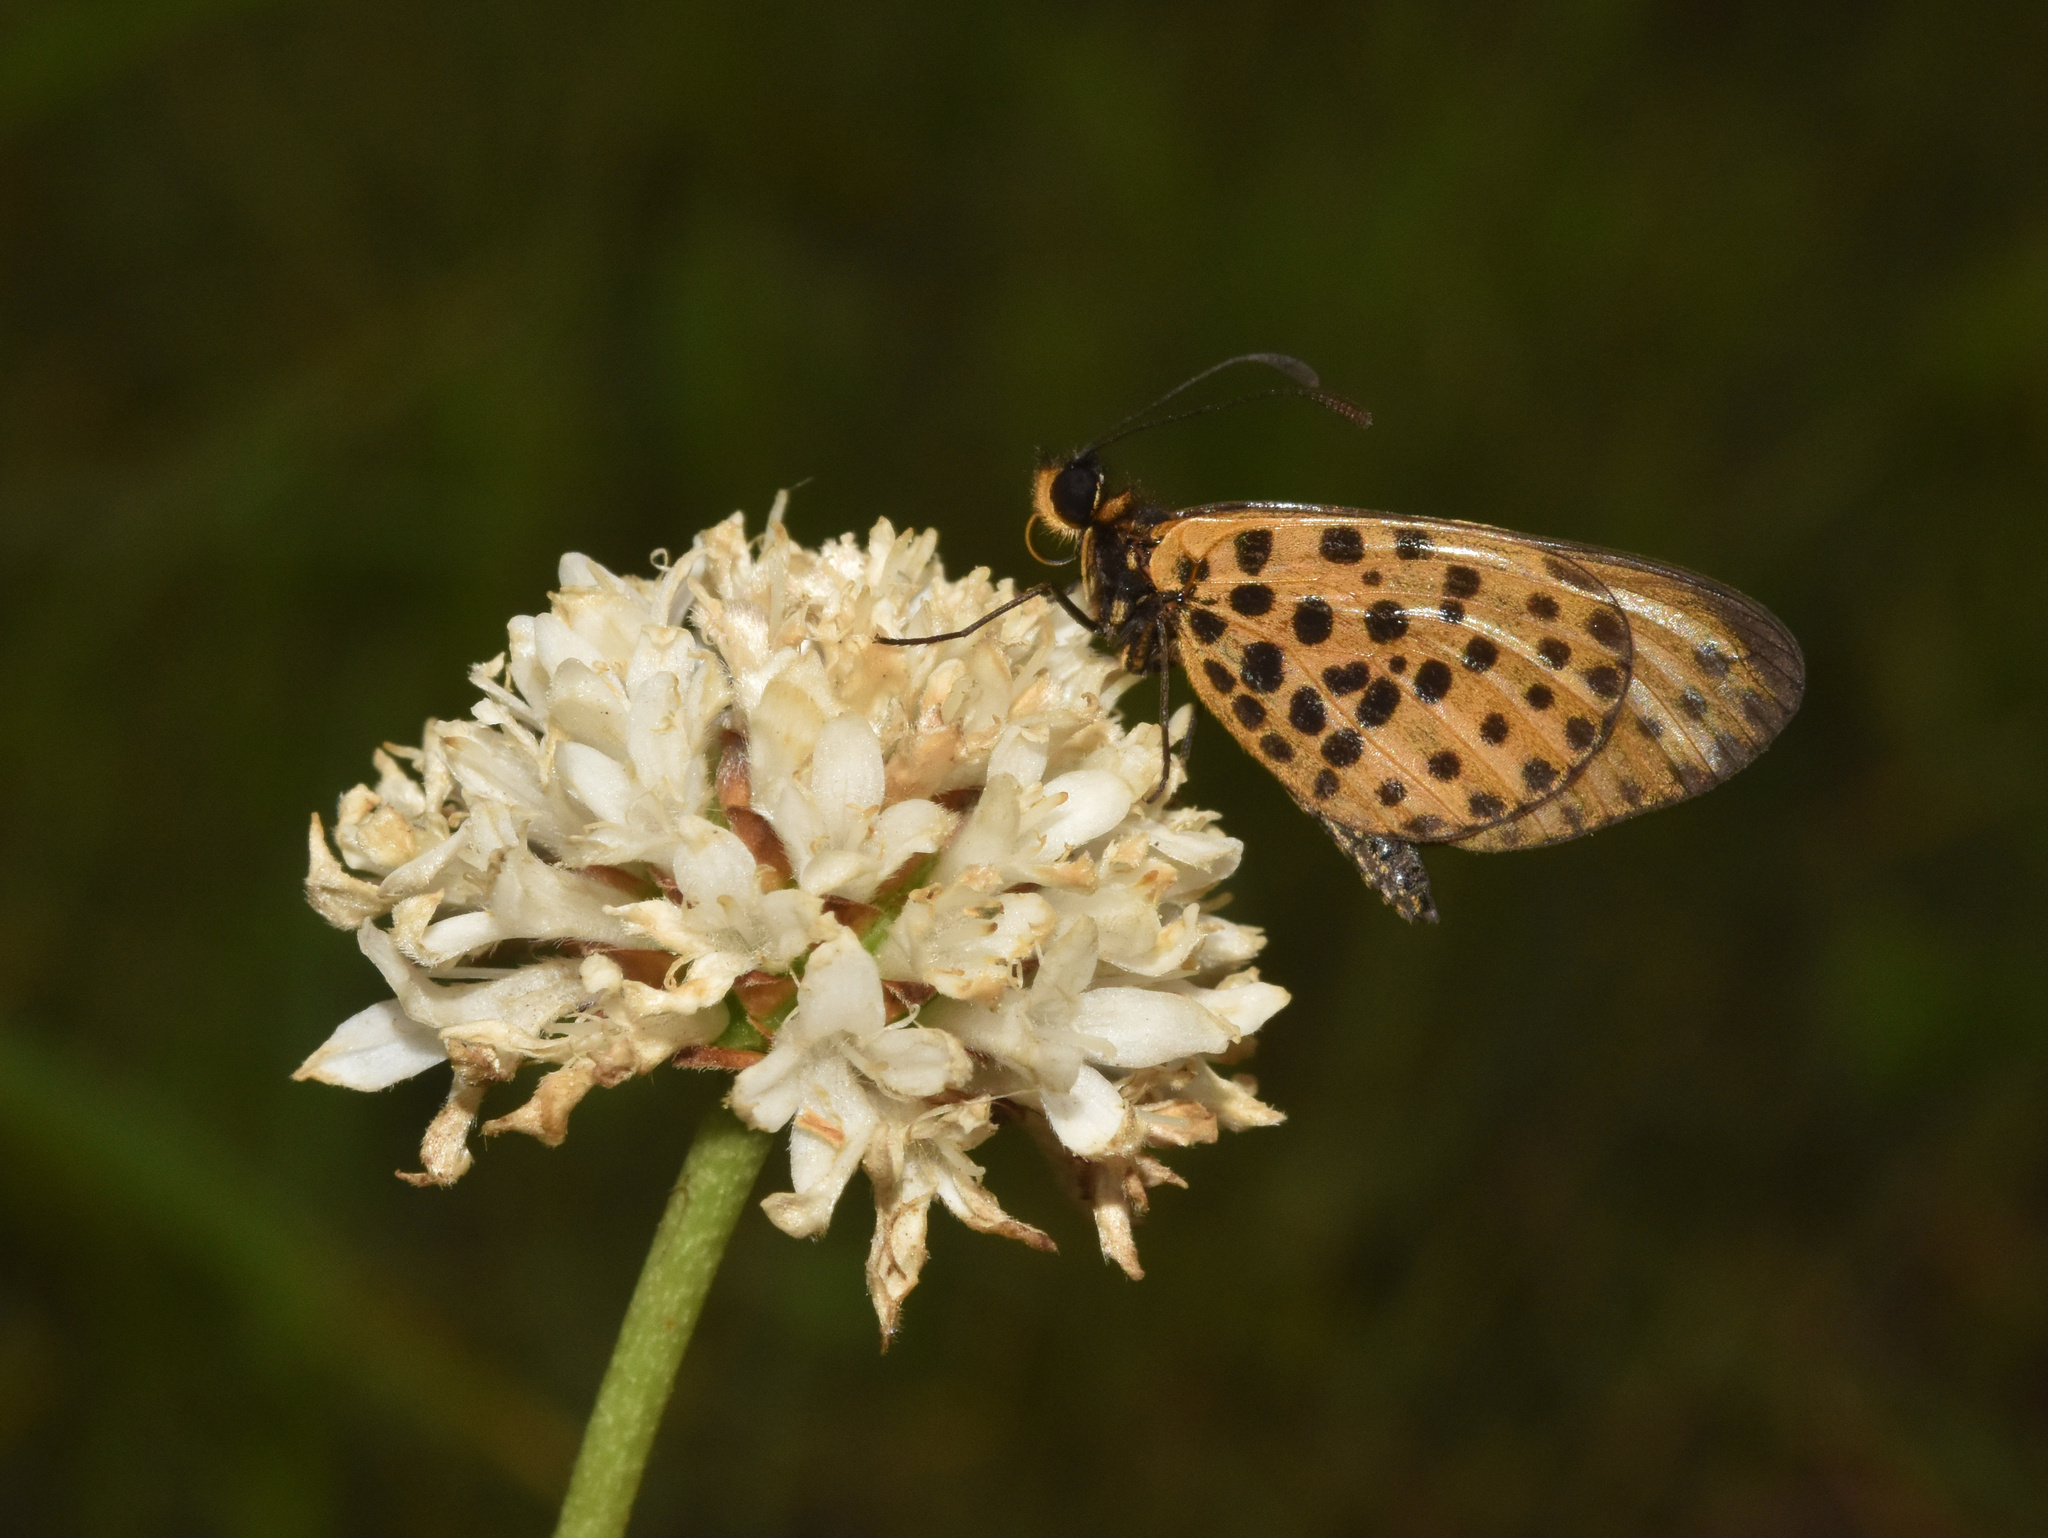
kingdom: Animalia
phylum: Arthropoda
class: Insecta
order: Lepidoptera
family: Nymphalidae
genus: Pardopsis
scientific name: Pardopsis punctatissima
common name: Polka dot
